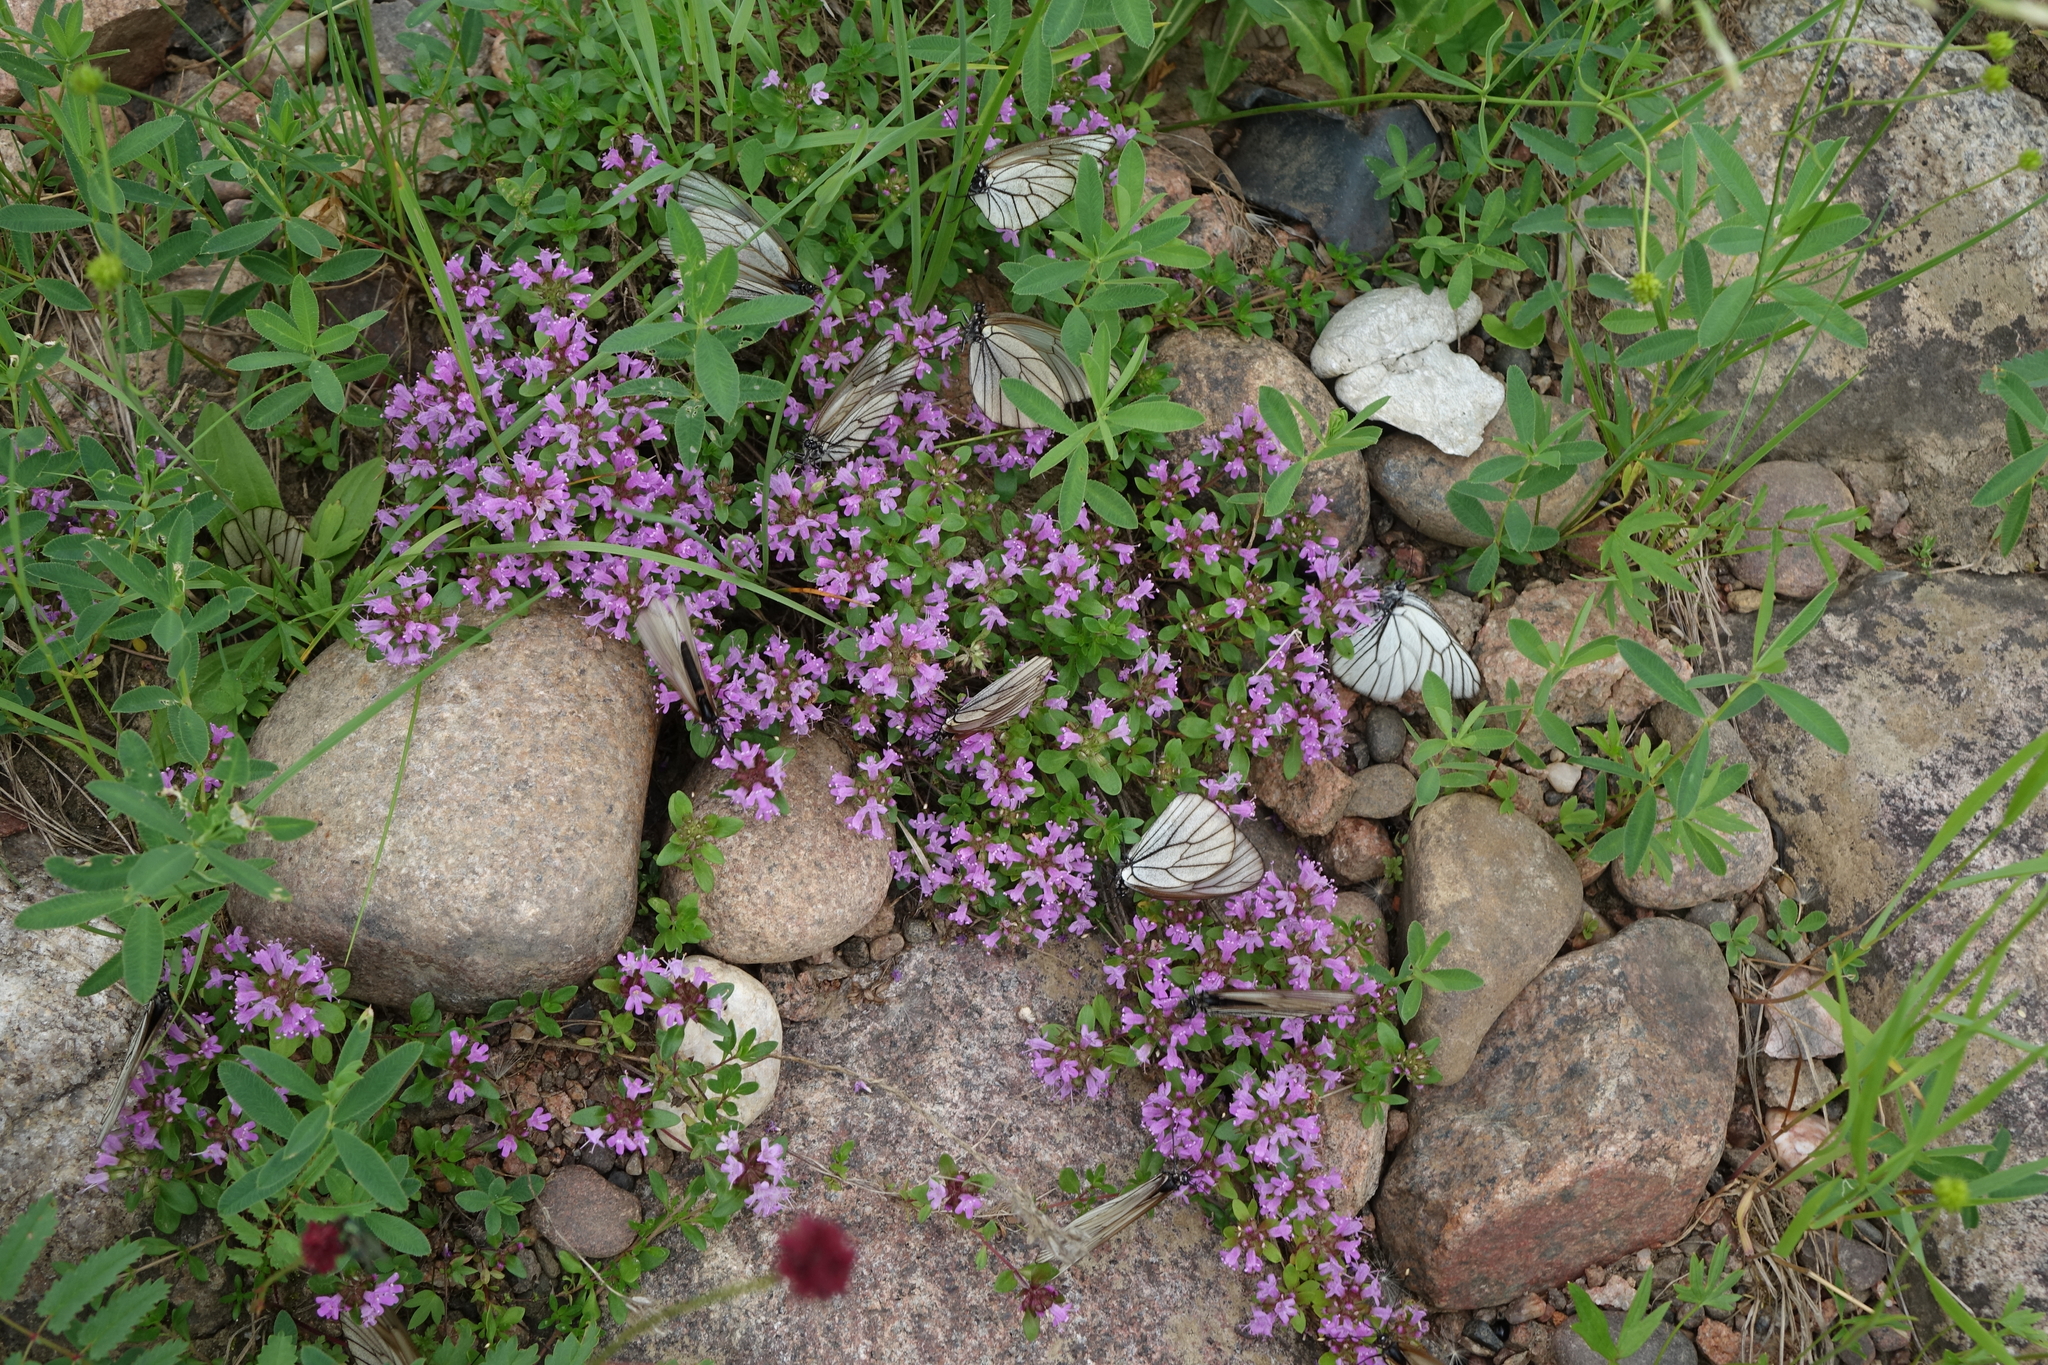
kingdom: Animalia
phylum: Arthropoda
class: Insecta
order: Lepidoptera
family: Pieridae
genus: Aporia
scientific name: Aporia crataegi
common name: Black-veined white
